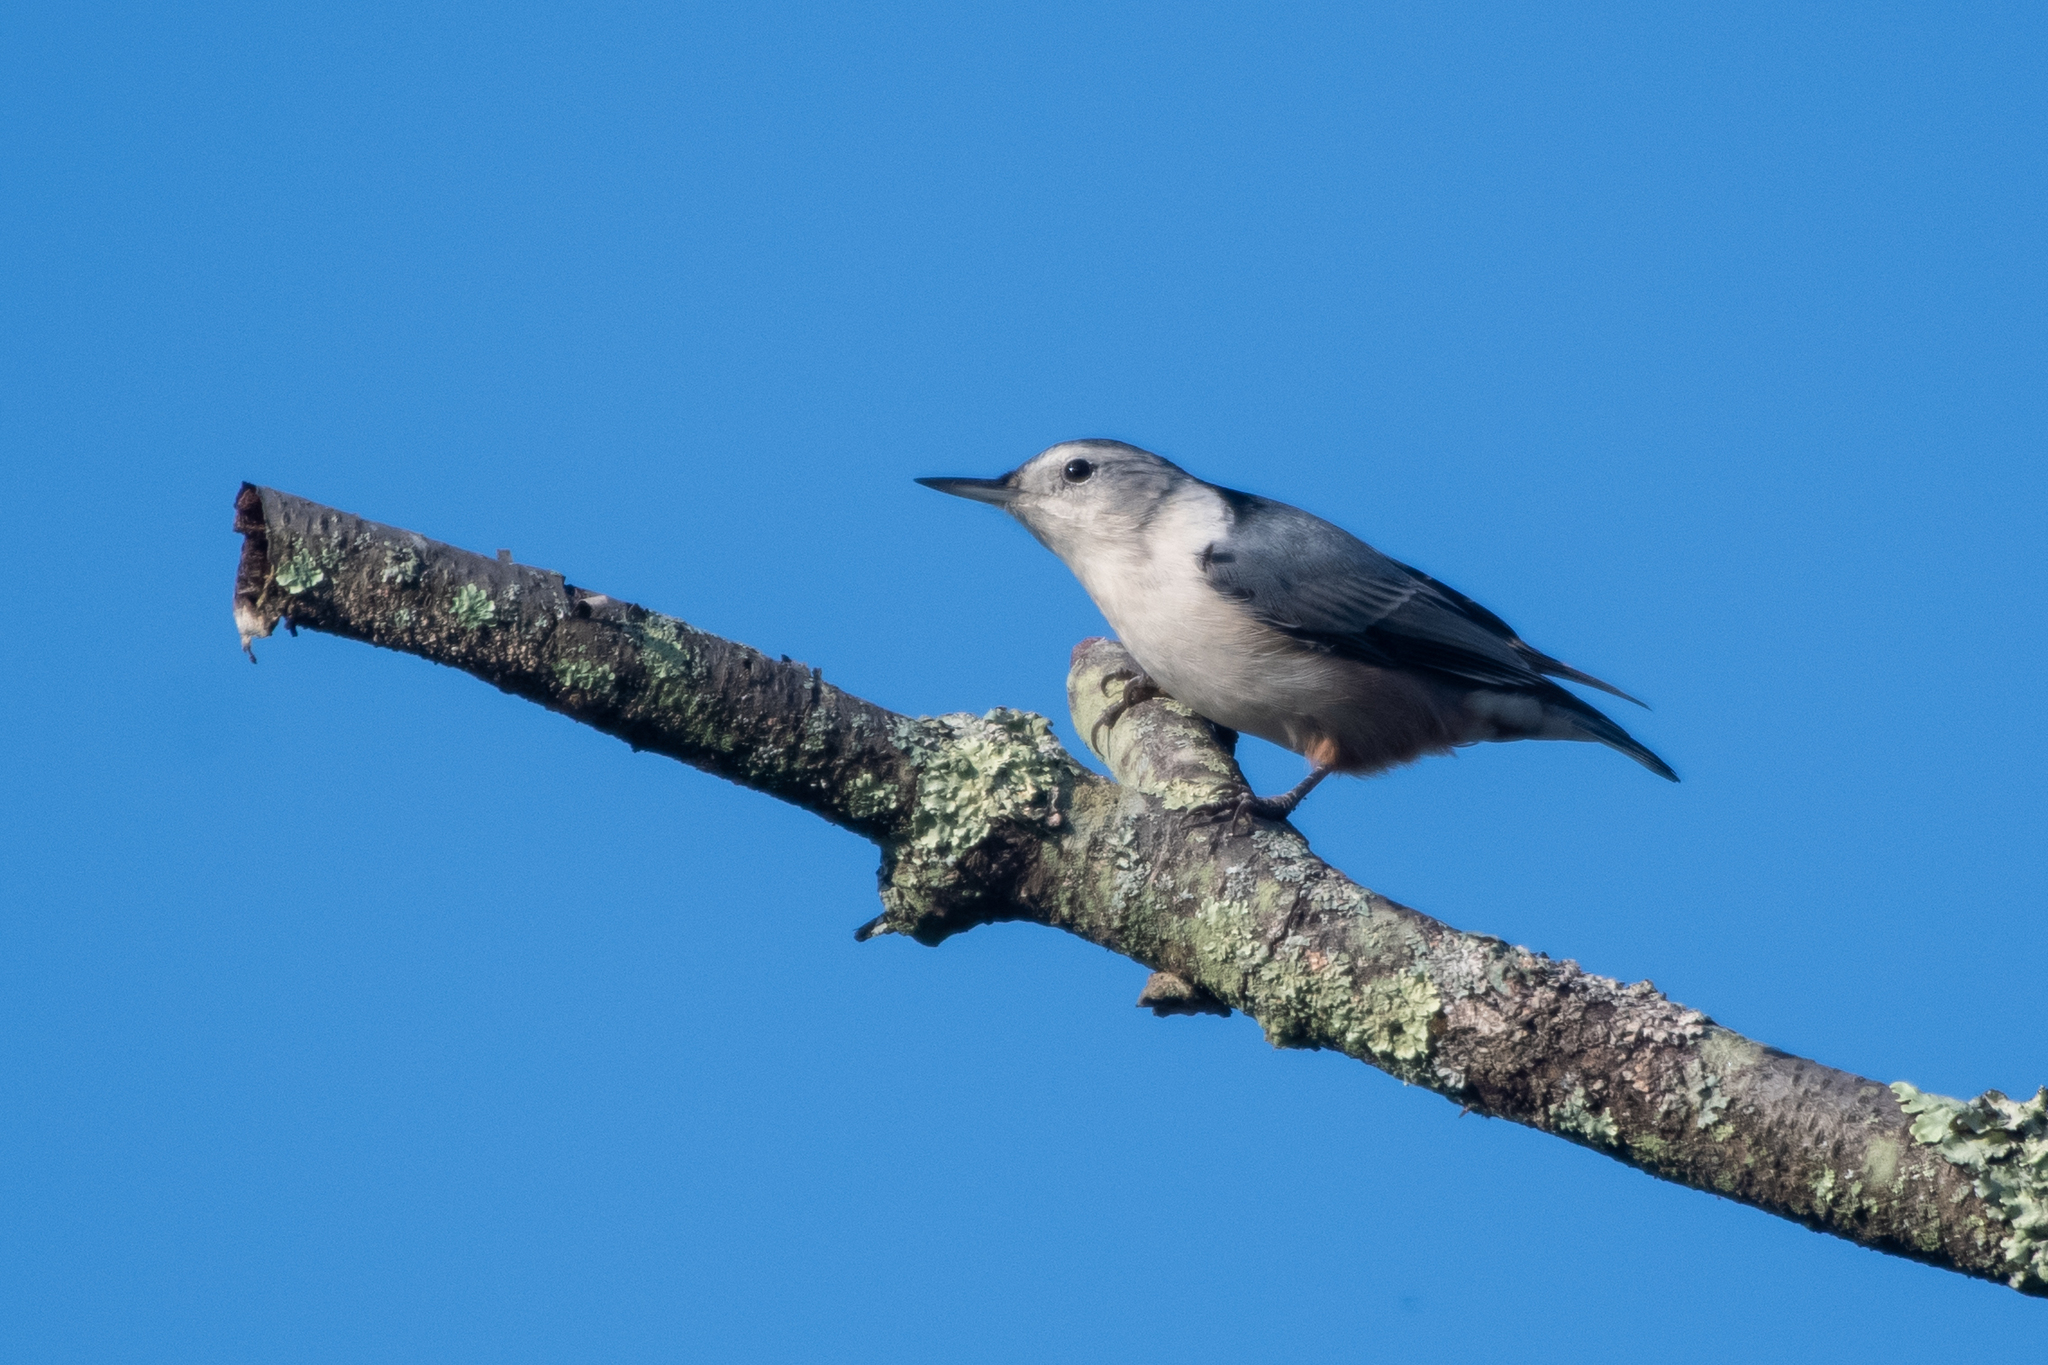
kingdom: Animalia
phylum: Chordata
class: Aves
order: Passeriformes
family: Sittidae
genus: Sitta
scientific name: Sitta carolinensis
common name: White-breasted nuthatch
